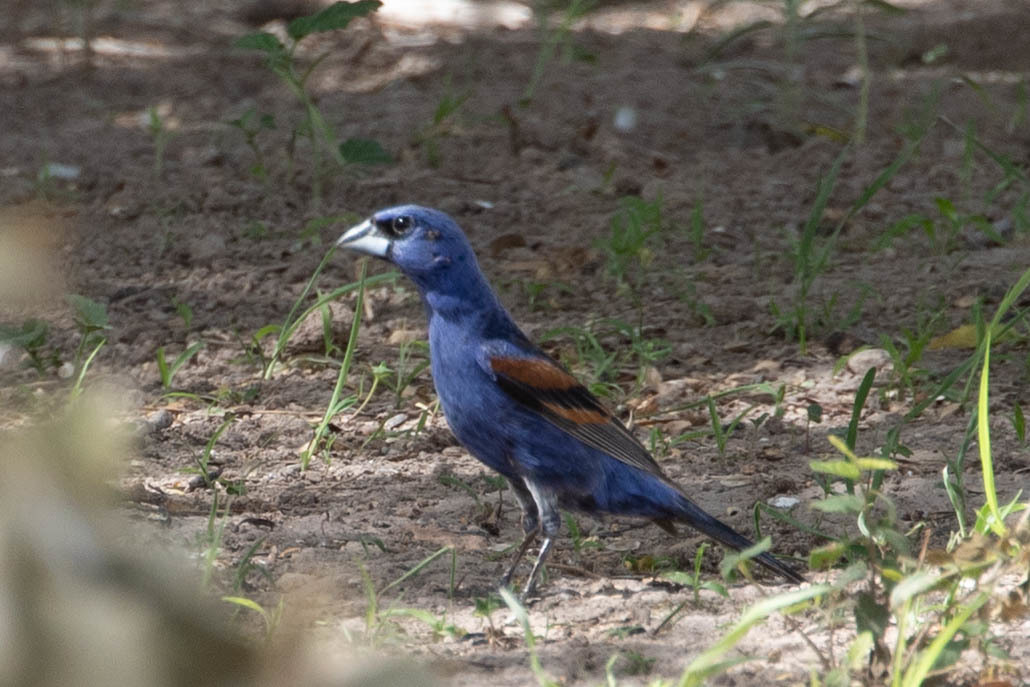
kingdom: Animalia
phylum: Chordata
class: Aves
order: Passeriformes
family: Cardinalidae
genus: Passerina
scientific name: Passerina caerulea
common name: Blue grosbeak
